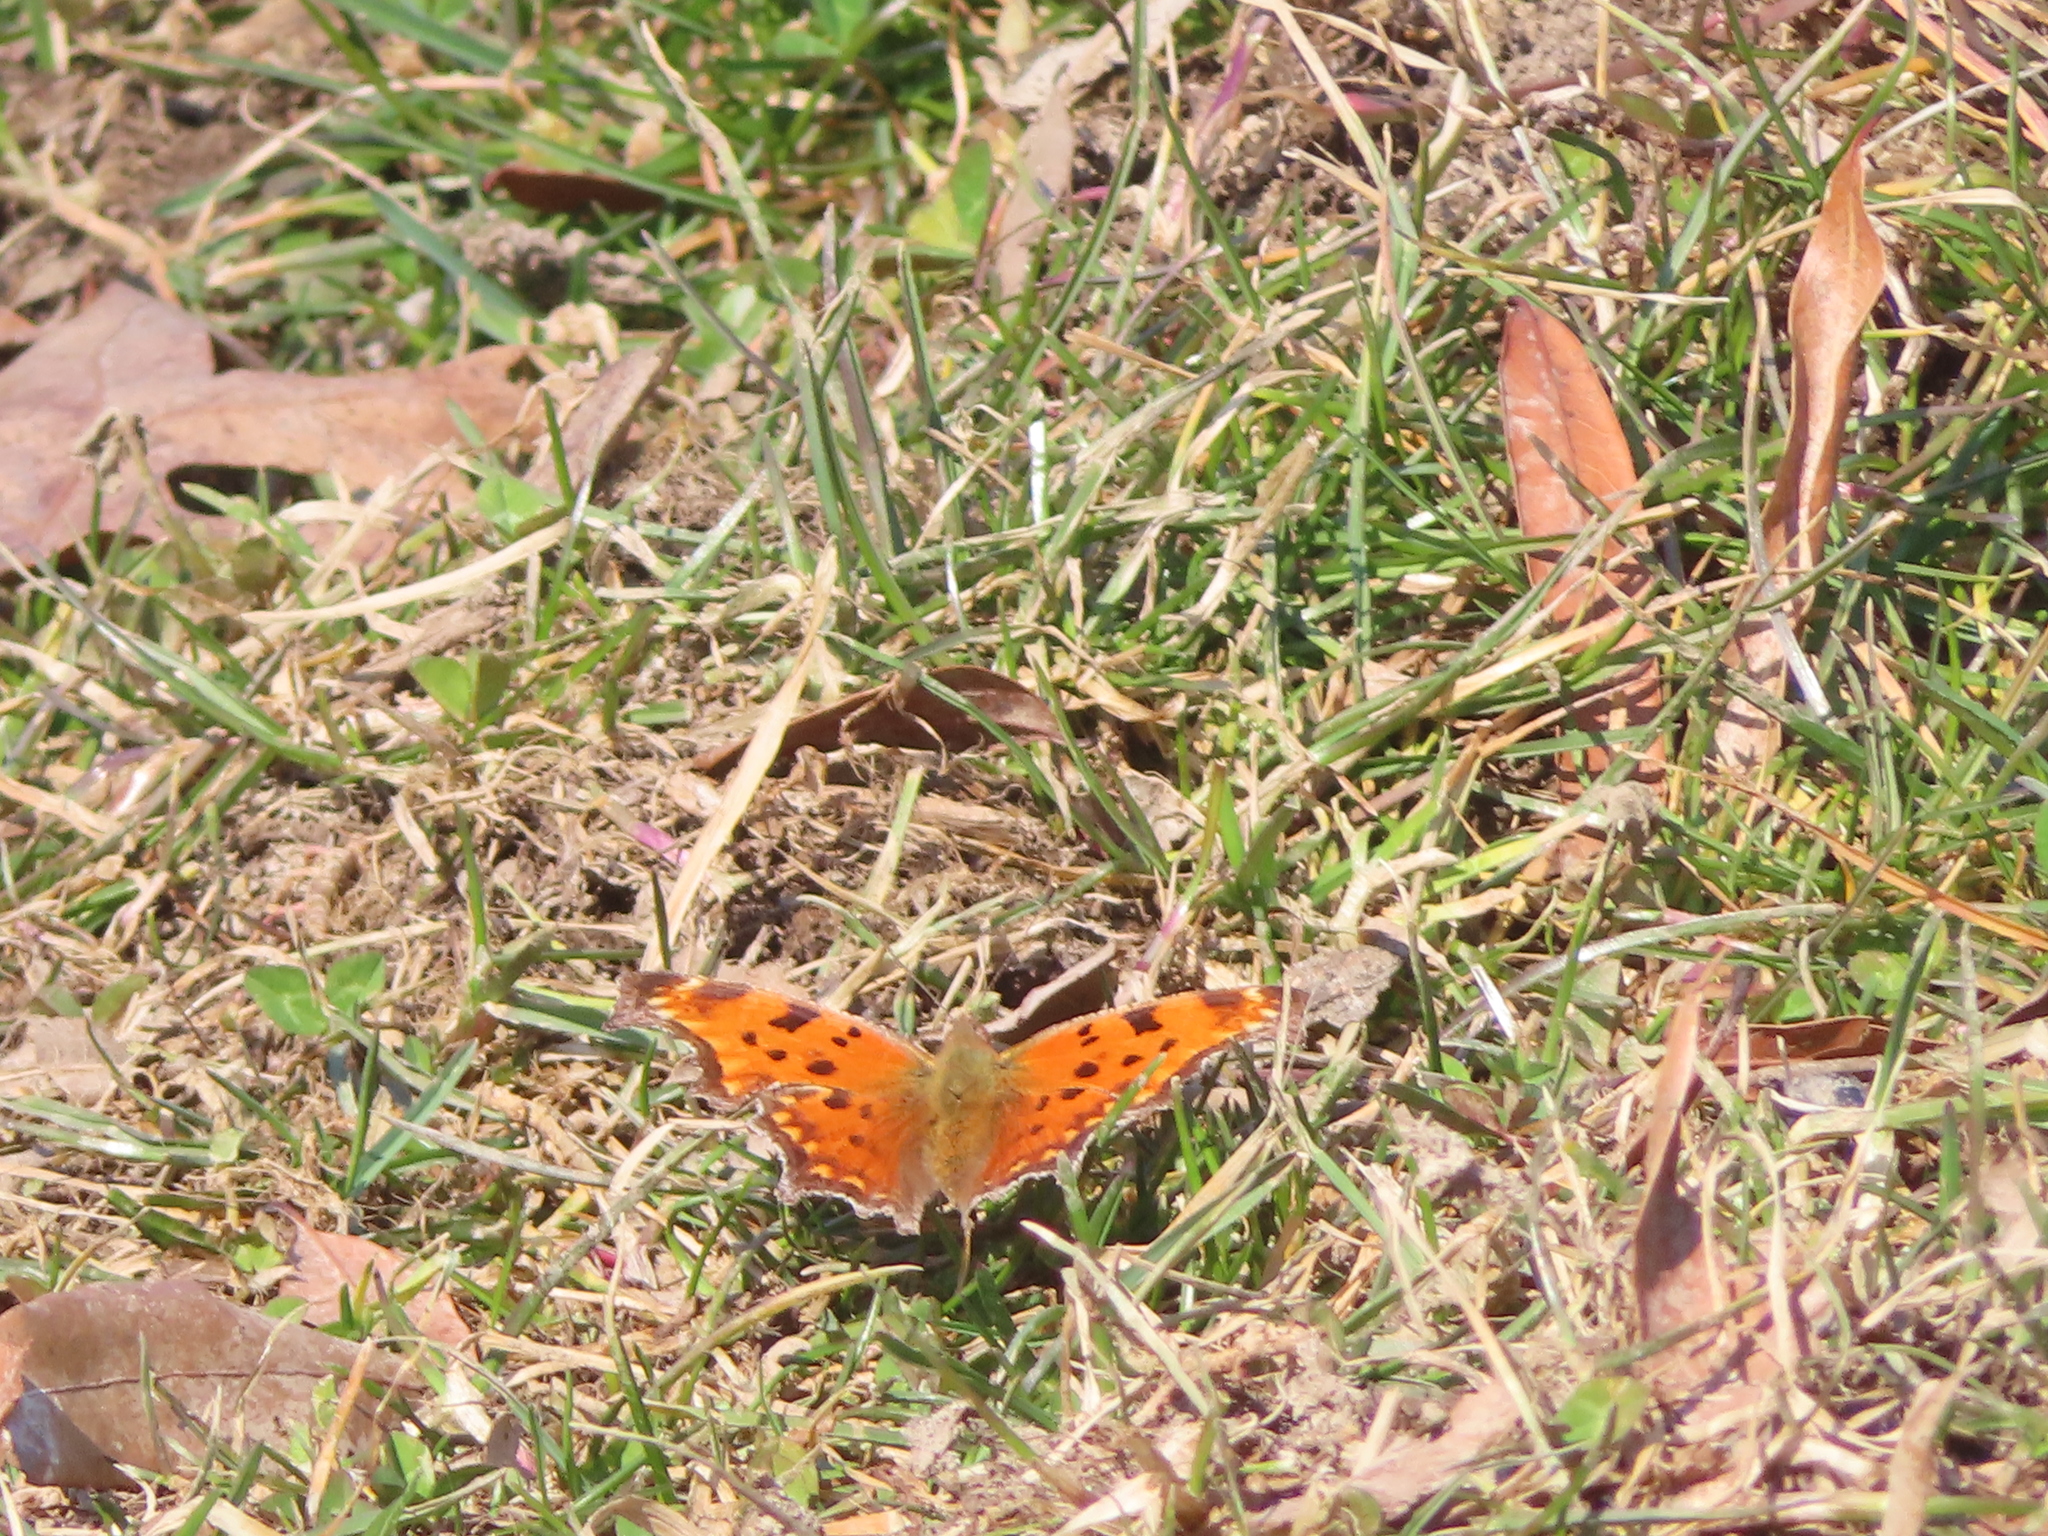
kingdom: Animalia
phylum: Arthropoda
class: Insecta
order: Lepidoptera
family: Nymphalidae
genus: Polygonia
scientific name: Polygonia comma
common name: Eastern comma
